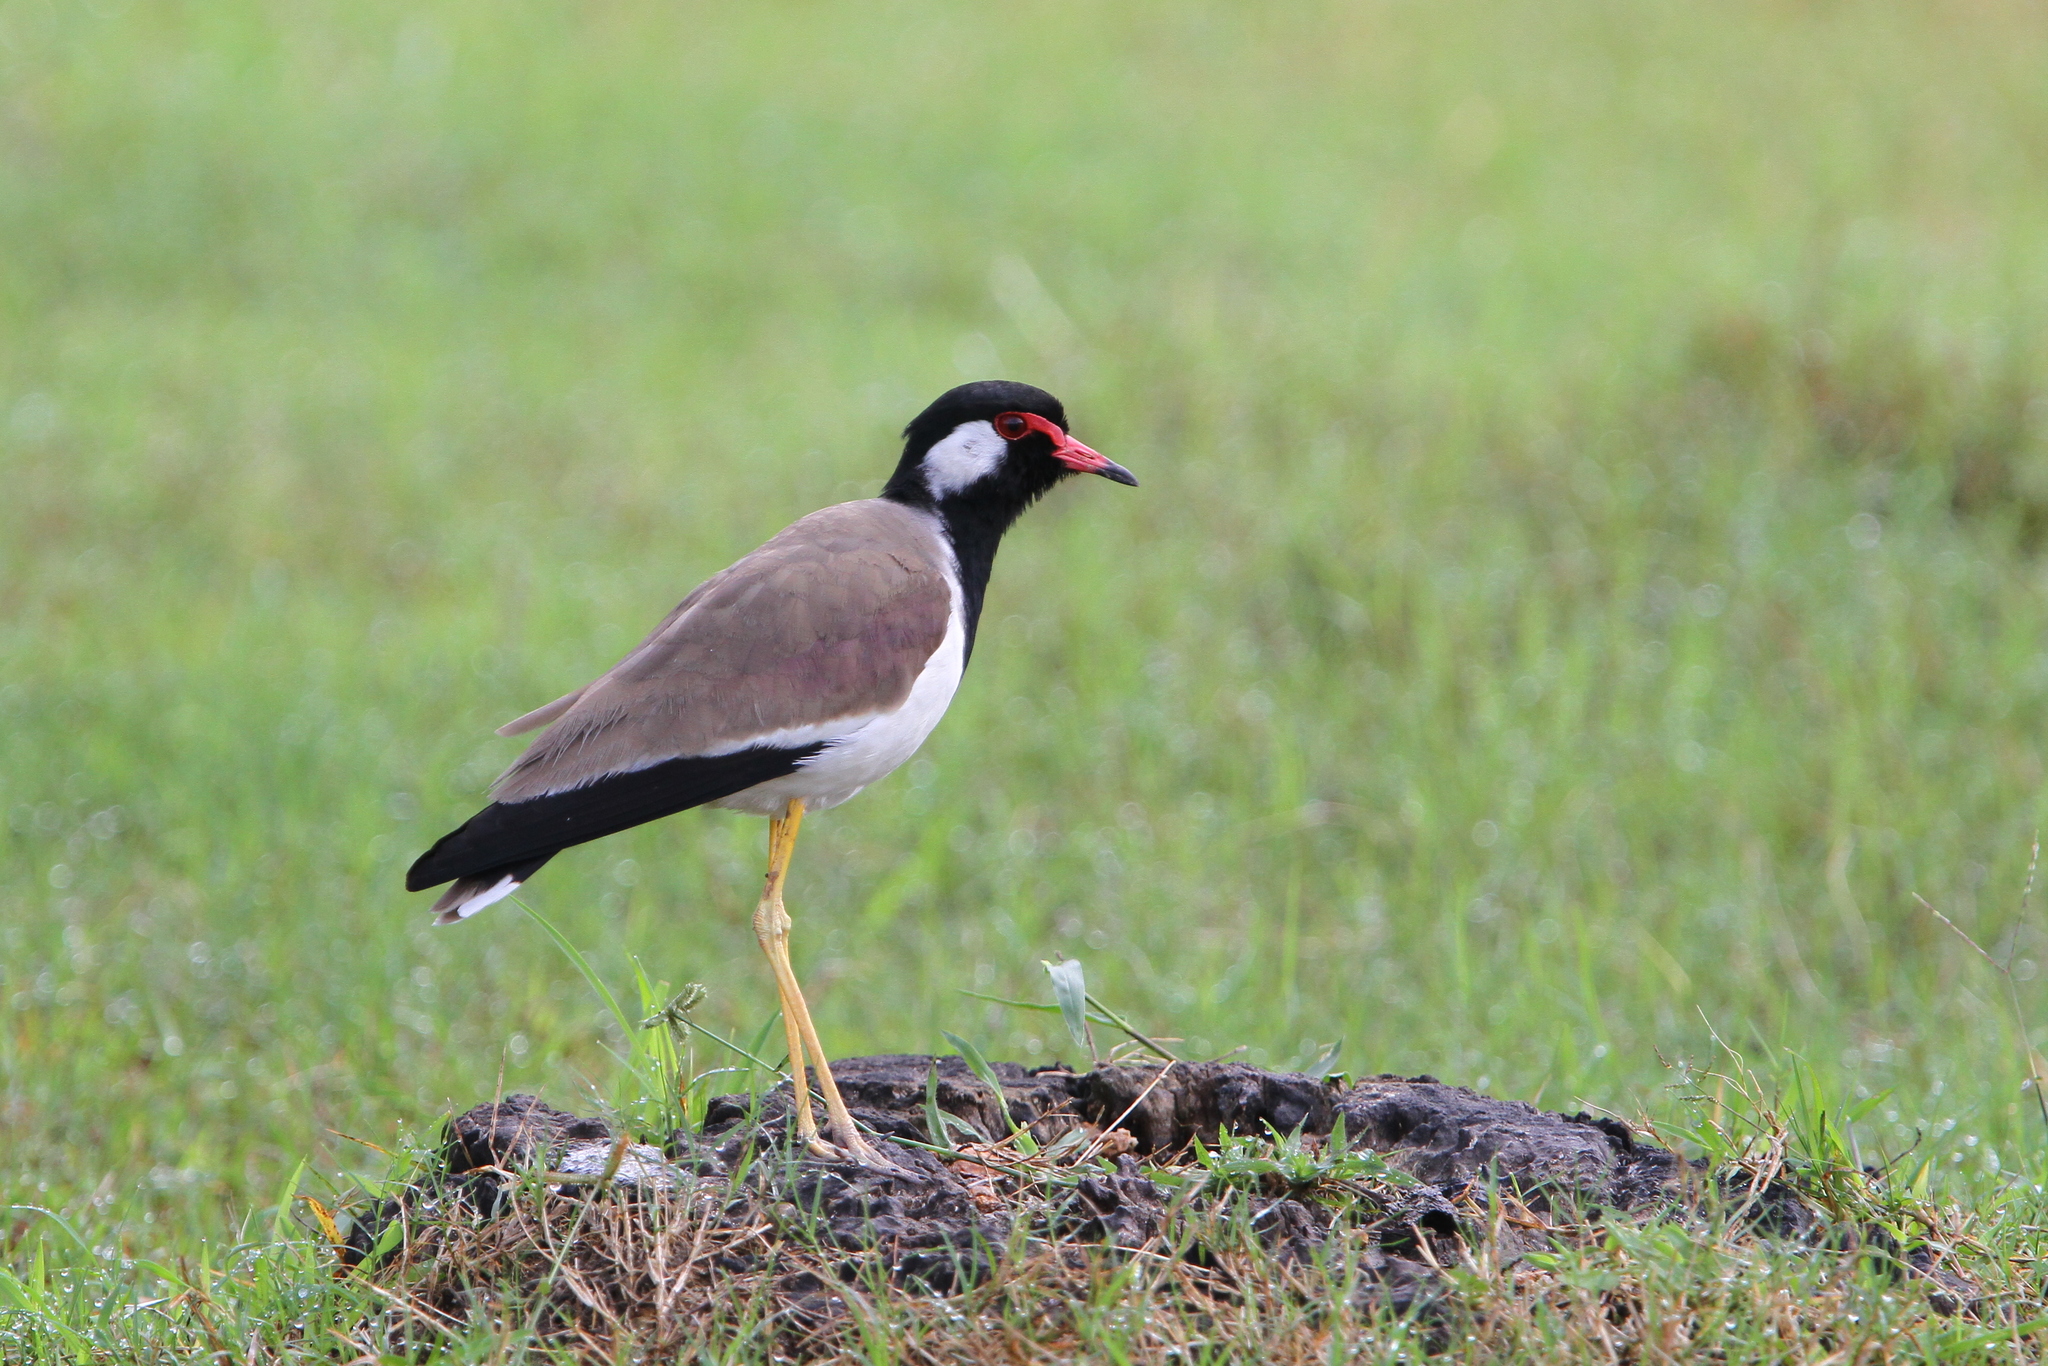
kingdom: Animalia
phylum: Chordata
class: Aves
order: Charadriiformes
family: Charadriidae
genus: Vanellus
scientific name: Vanellus indicus
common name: Red-wattled lapwing
